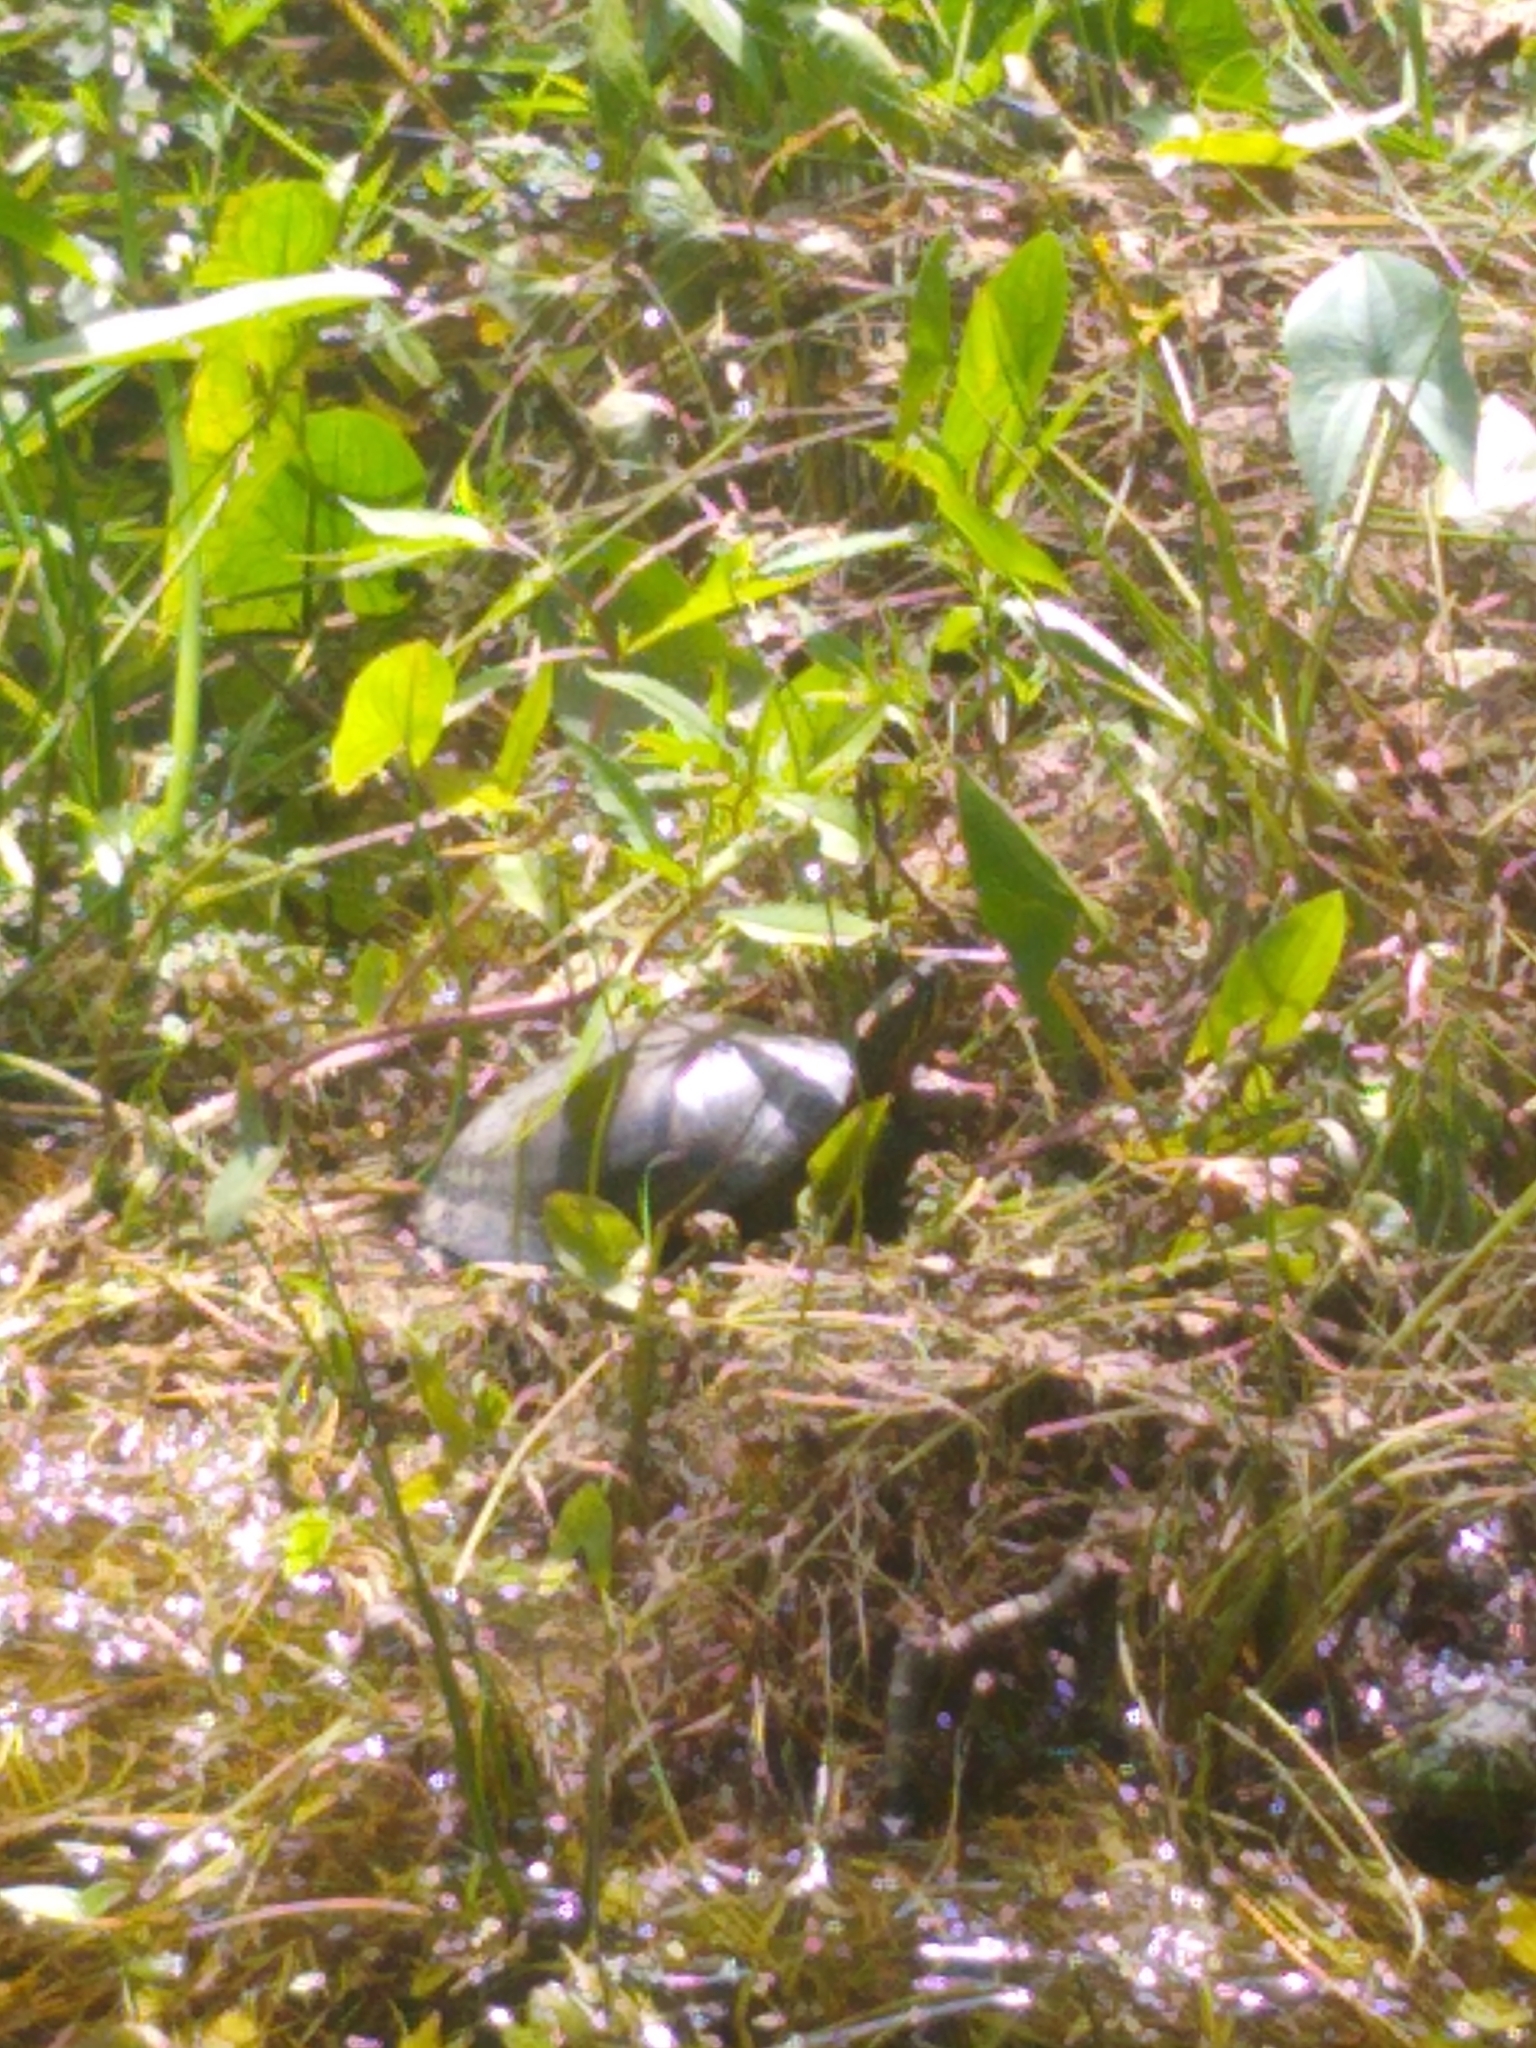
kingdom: Animalia
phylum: Chordata
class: Testudines
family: Emydidae
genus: Chrysemys
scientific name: Chrysemys picta
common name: Painted turtle
